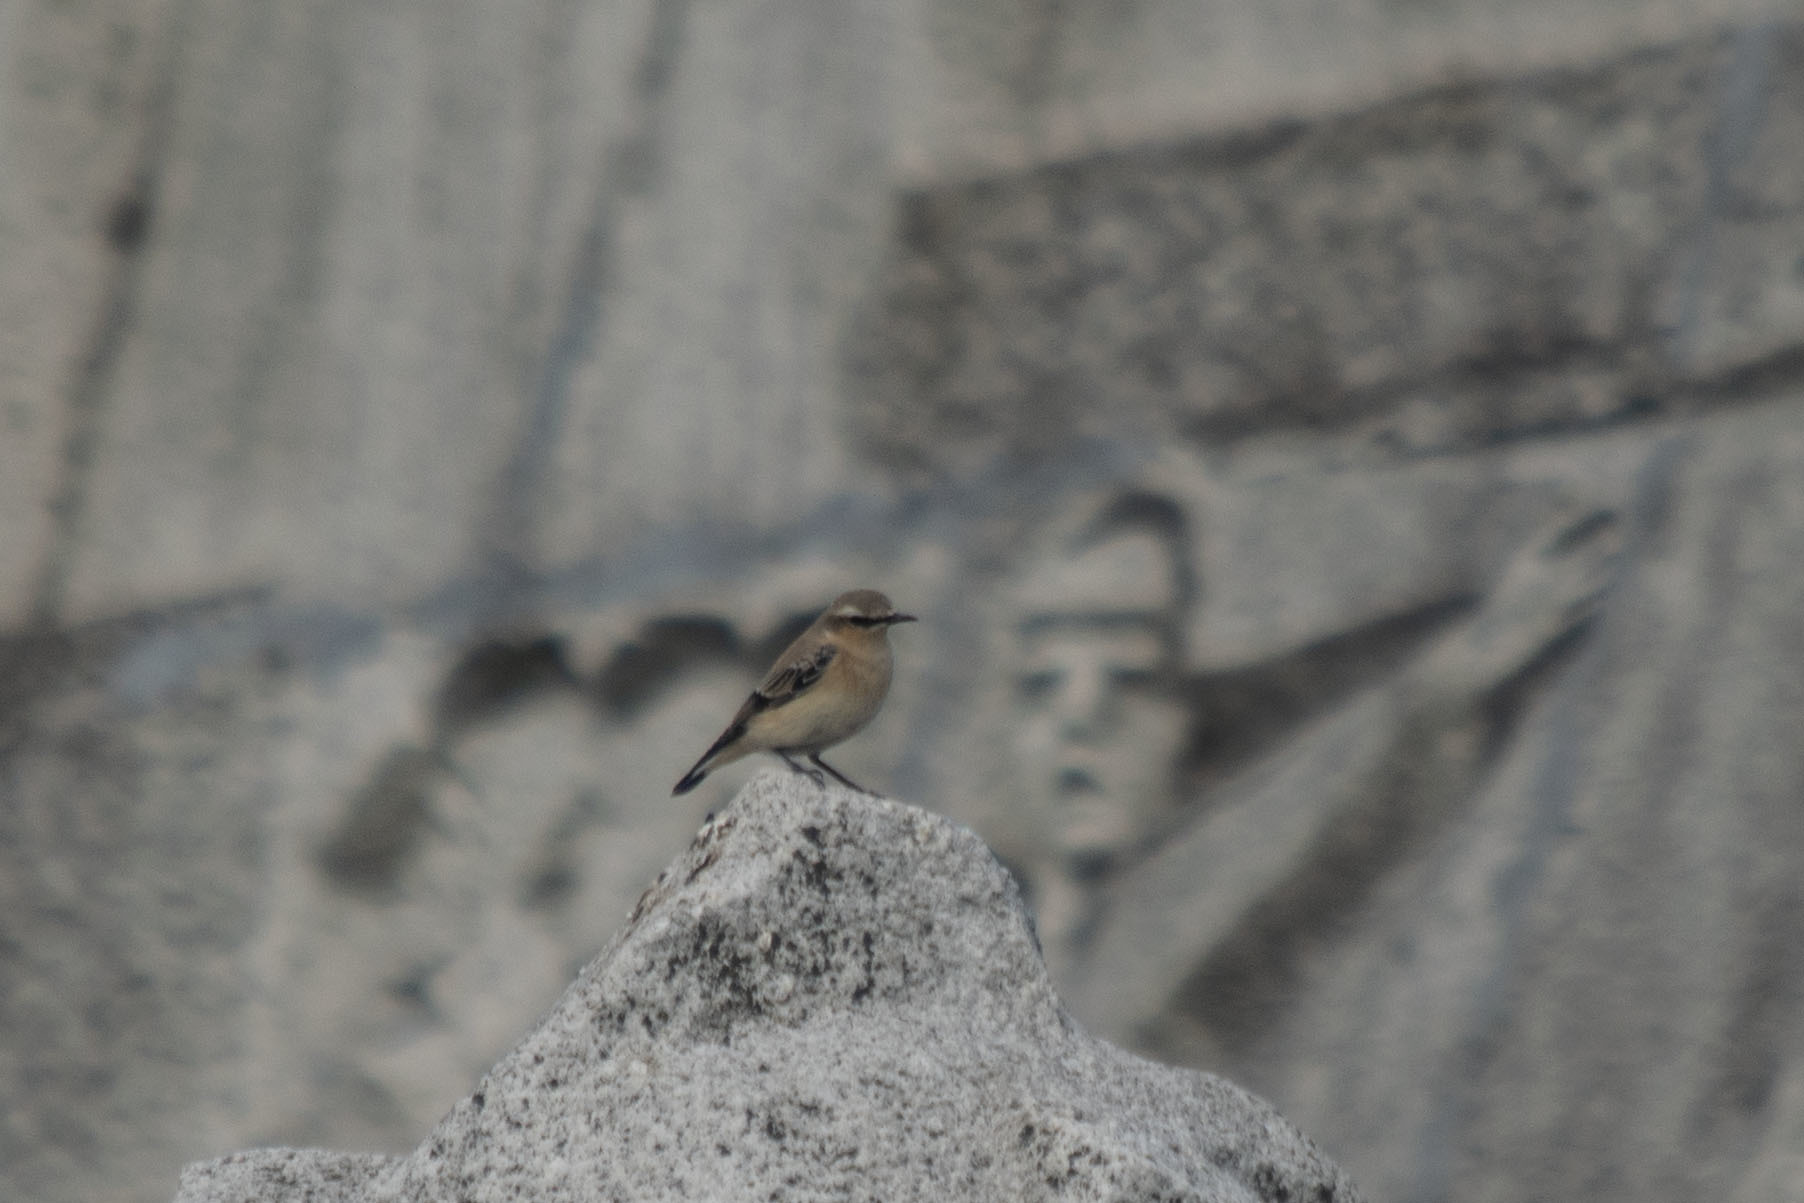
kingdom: Animalia
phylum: Chordata
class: Aves
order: Passeriformes
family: Muscicapidae
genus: Oenanthe
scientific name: Oenanthe oenanthe
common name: Northern wheatear
